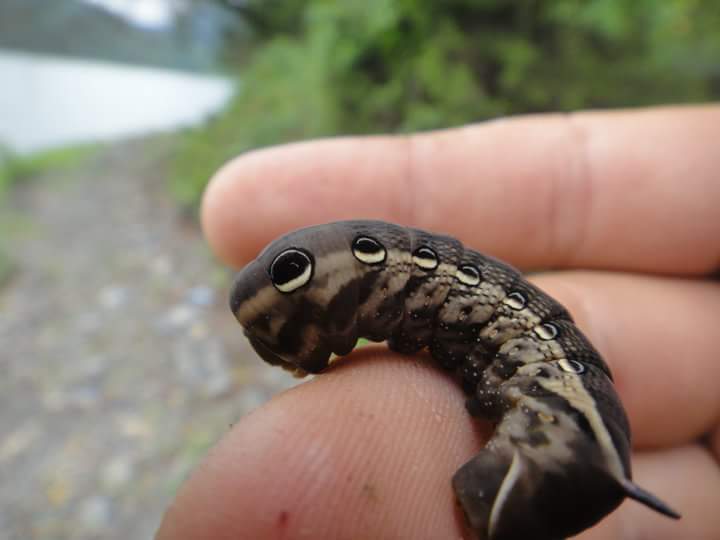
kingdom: Animalia
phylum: Arthropoda
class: Insecta
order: Lepidoptera
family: Sphingidae
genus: Xylophanes
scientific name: Xylophanes tersa
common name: Tersa sphinx
